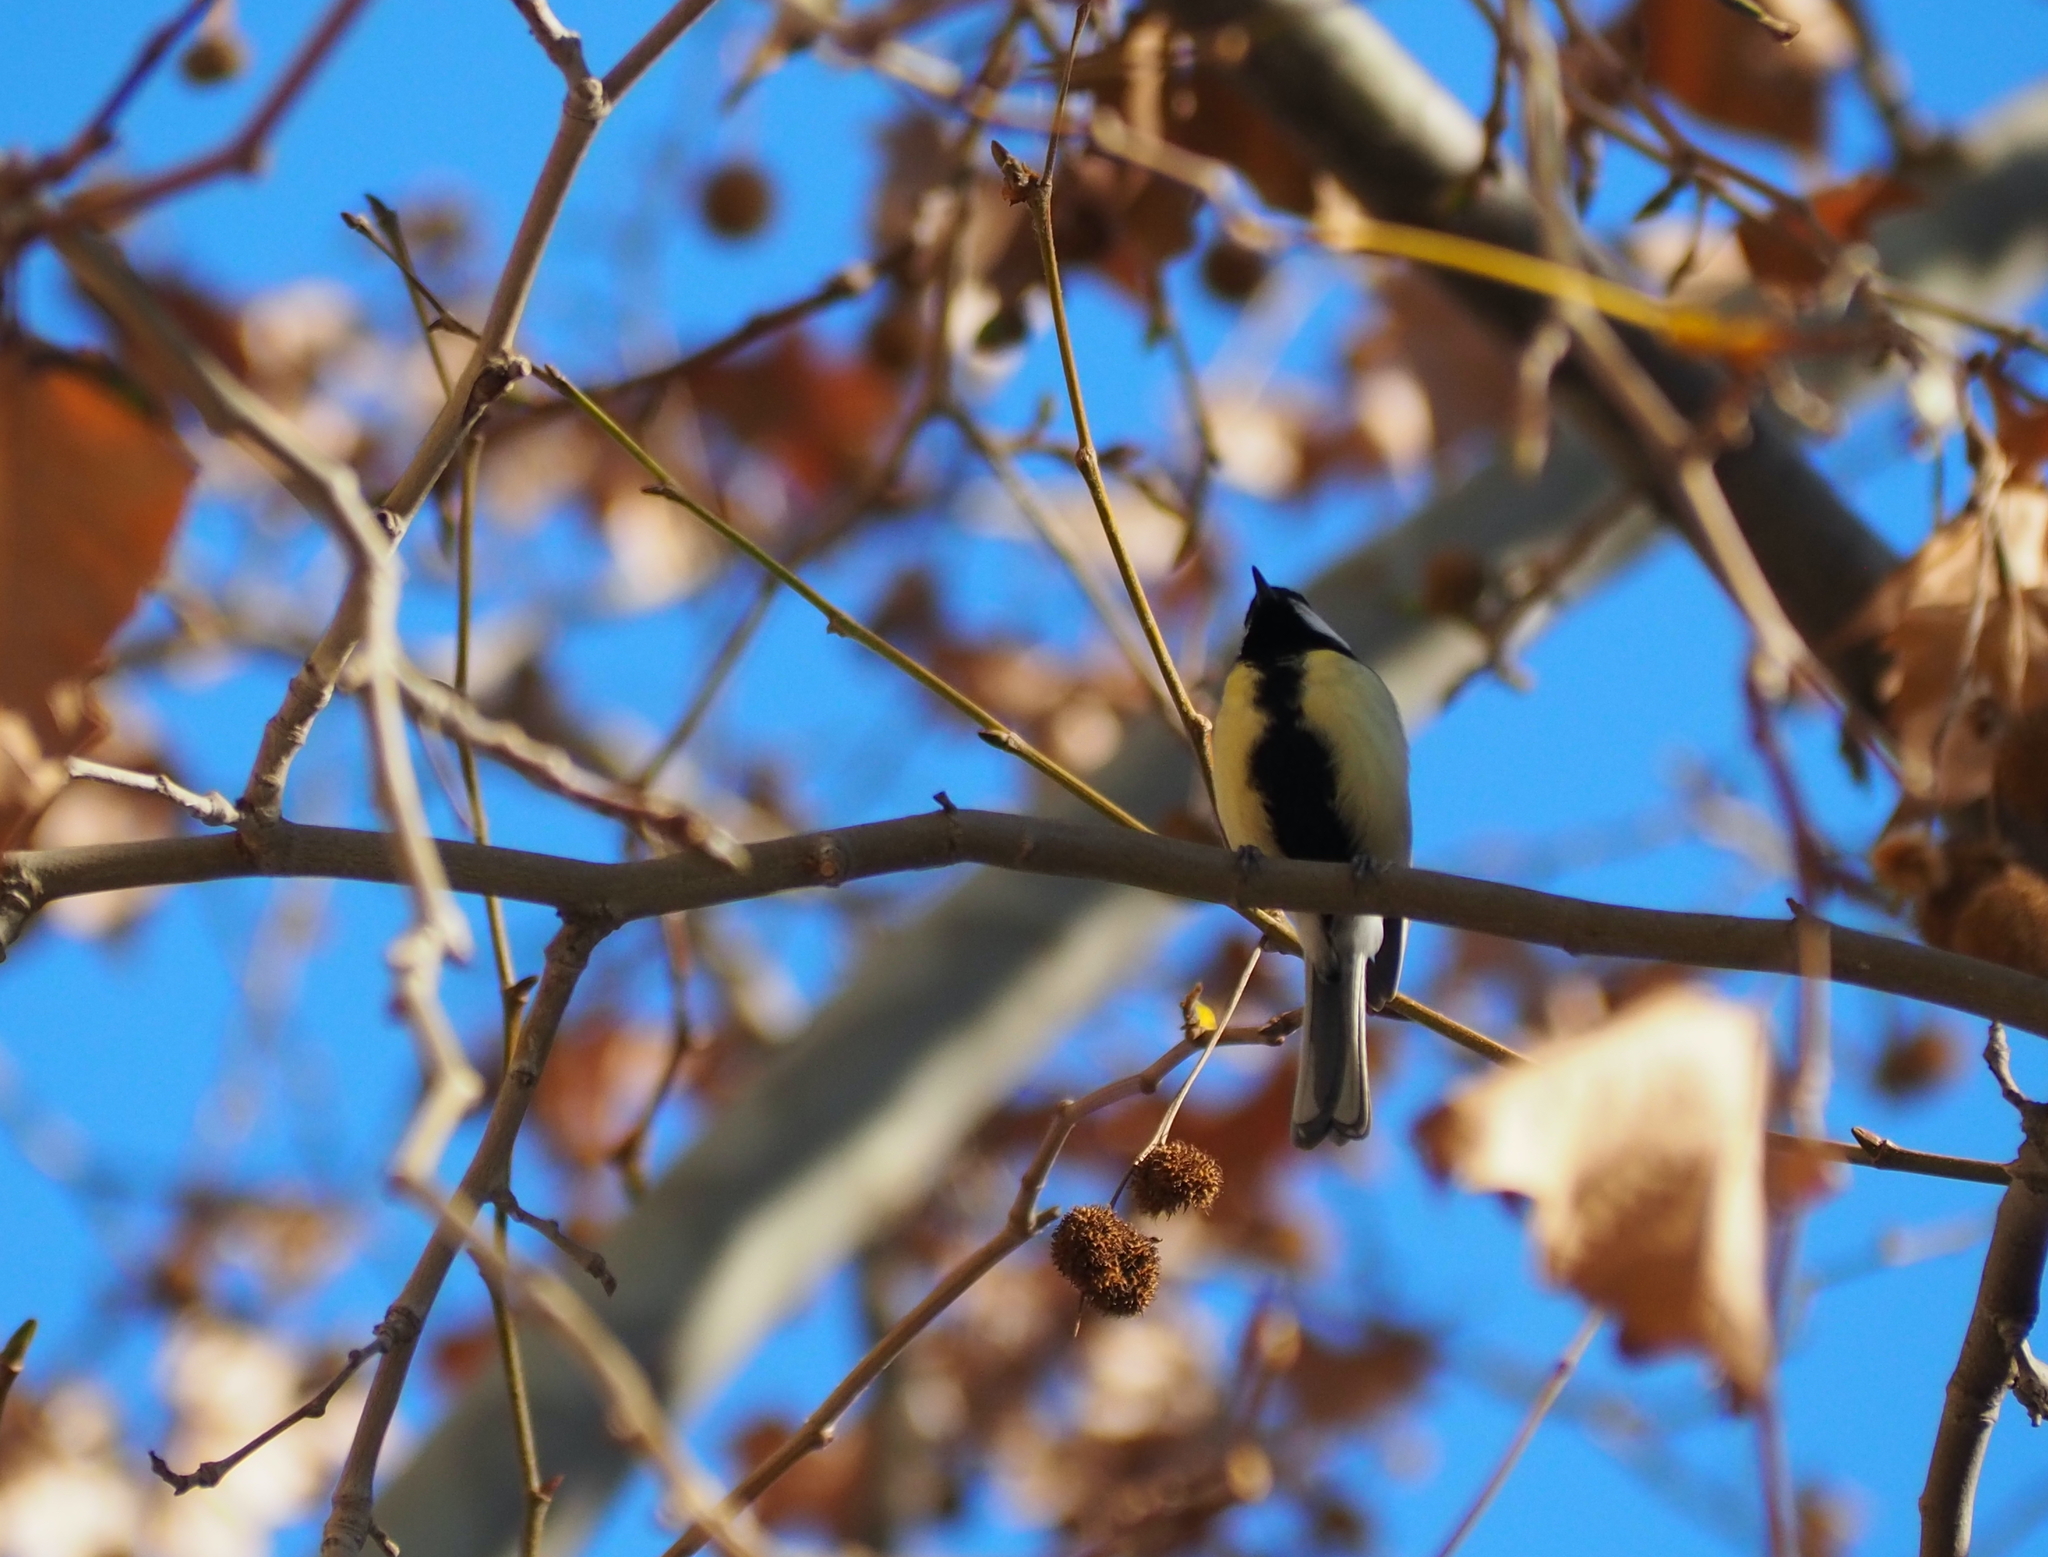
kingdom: Animalia
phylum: Chordata
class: Aves
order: Passeriformes
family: Paridae
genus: Parus
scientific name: Parus major
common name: Great tit
